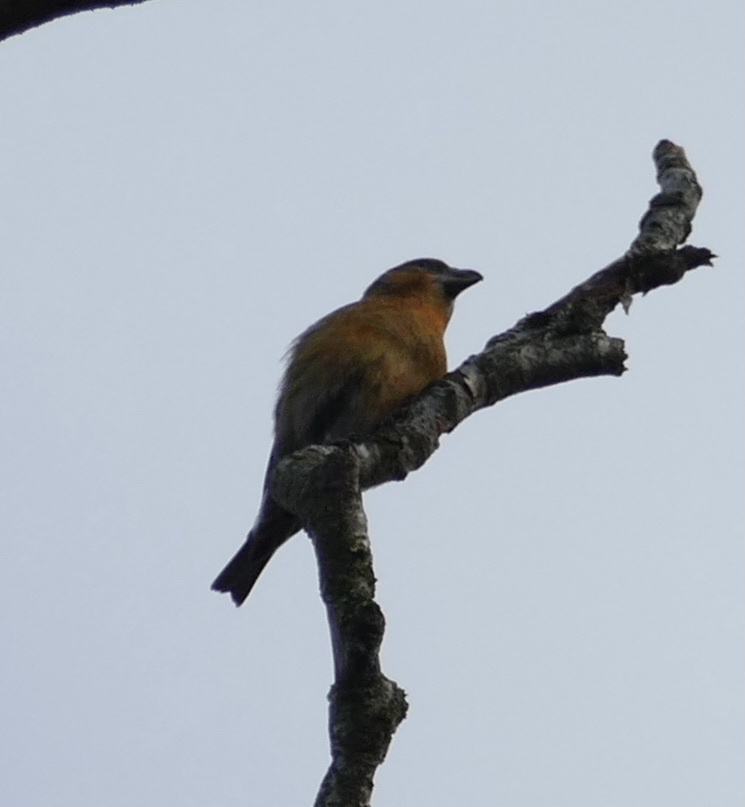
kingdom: Animalia
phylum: Chordata
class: Aves
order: Passeriformes
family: Fringillidae
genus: Loxia
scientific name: Loxia curvirostra
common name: Red crossbill
